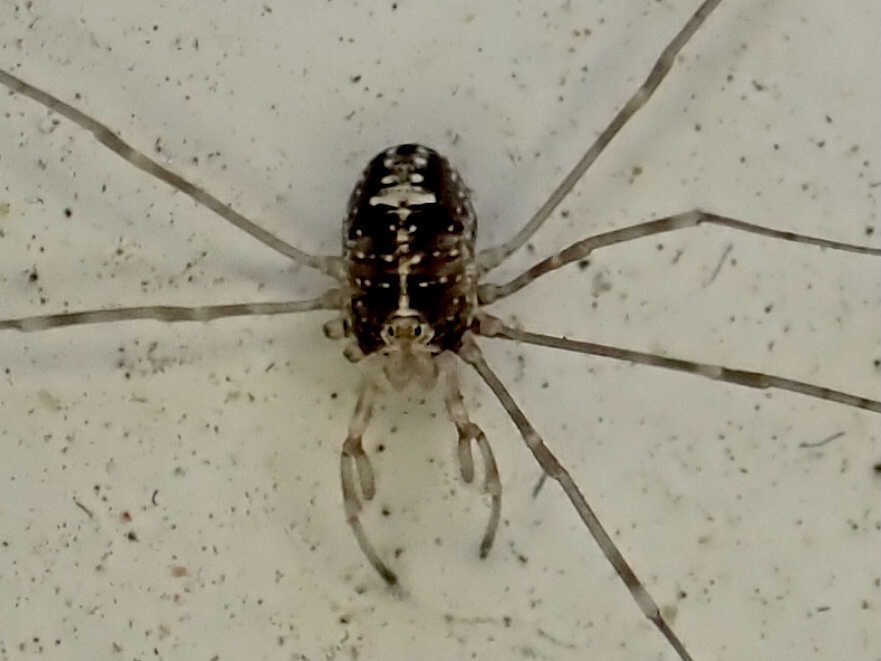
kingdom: Animalia
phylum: Arthropoda
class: Arachnida
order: Opiliones
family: Phalangiidae
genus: Dicranopalpus
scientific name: Dicranopalpus ramosus
